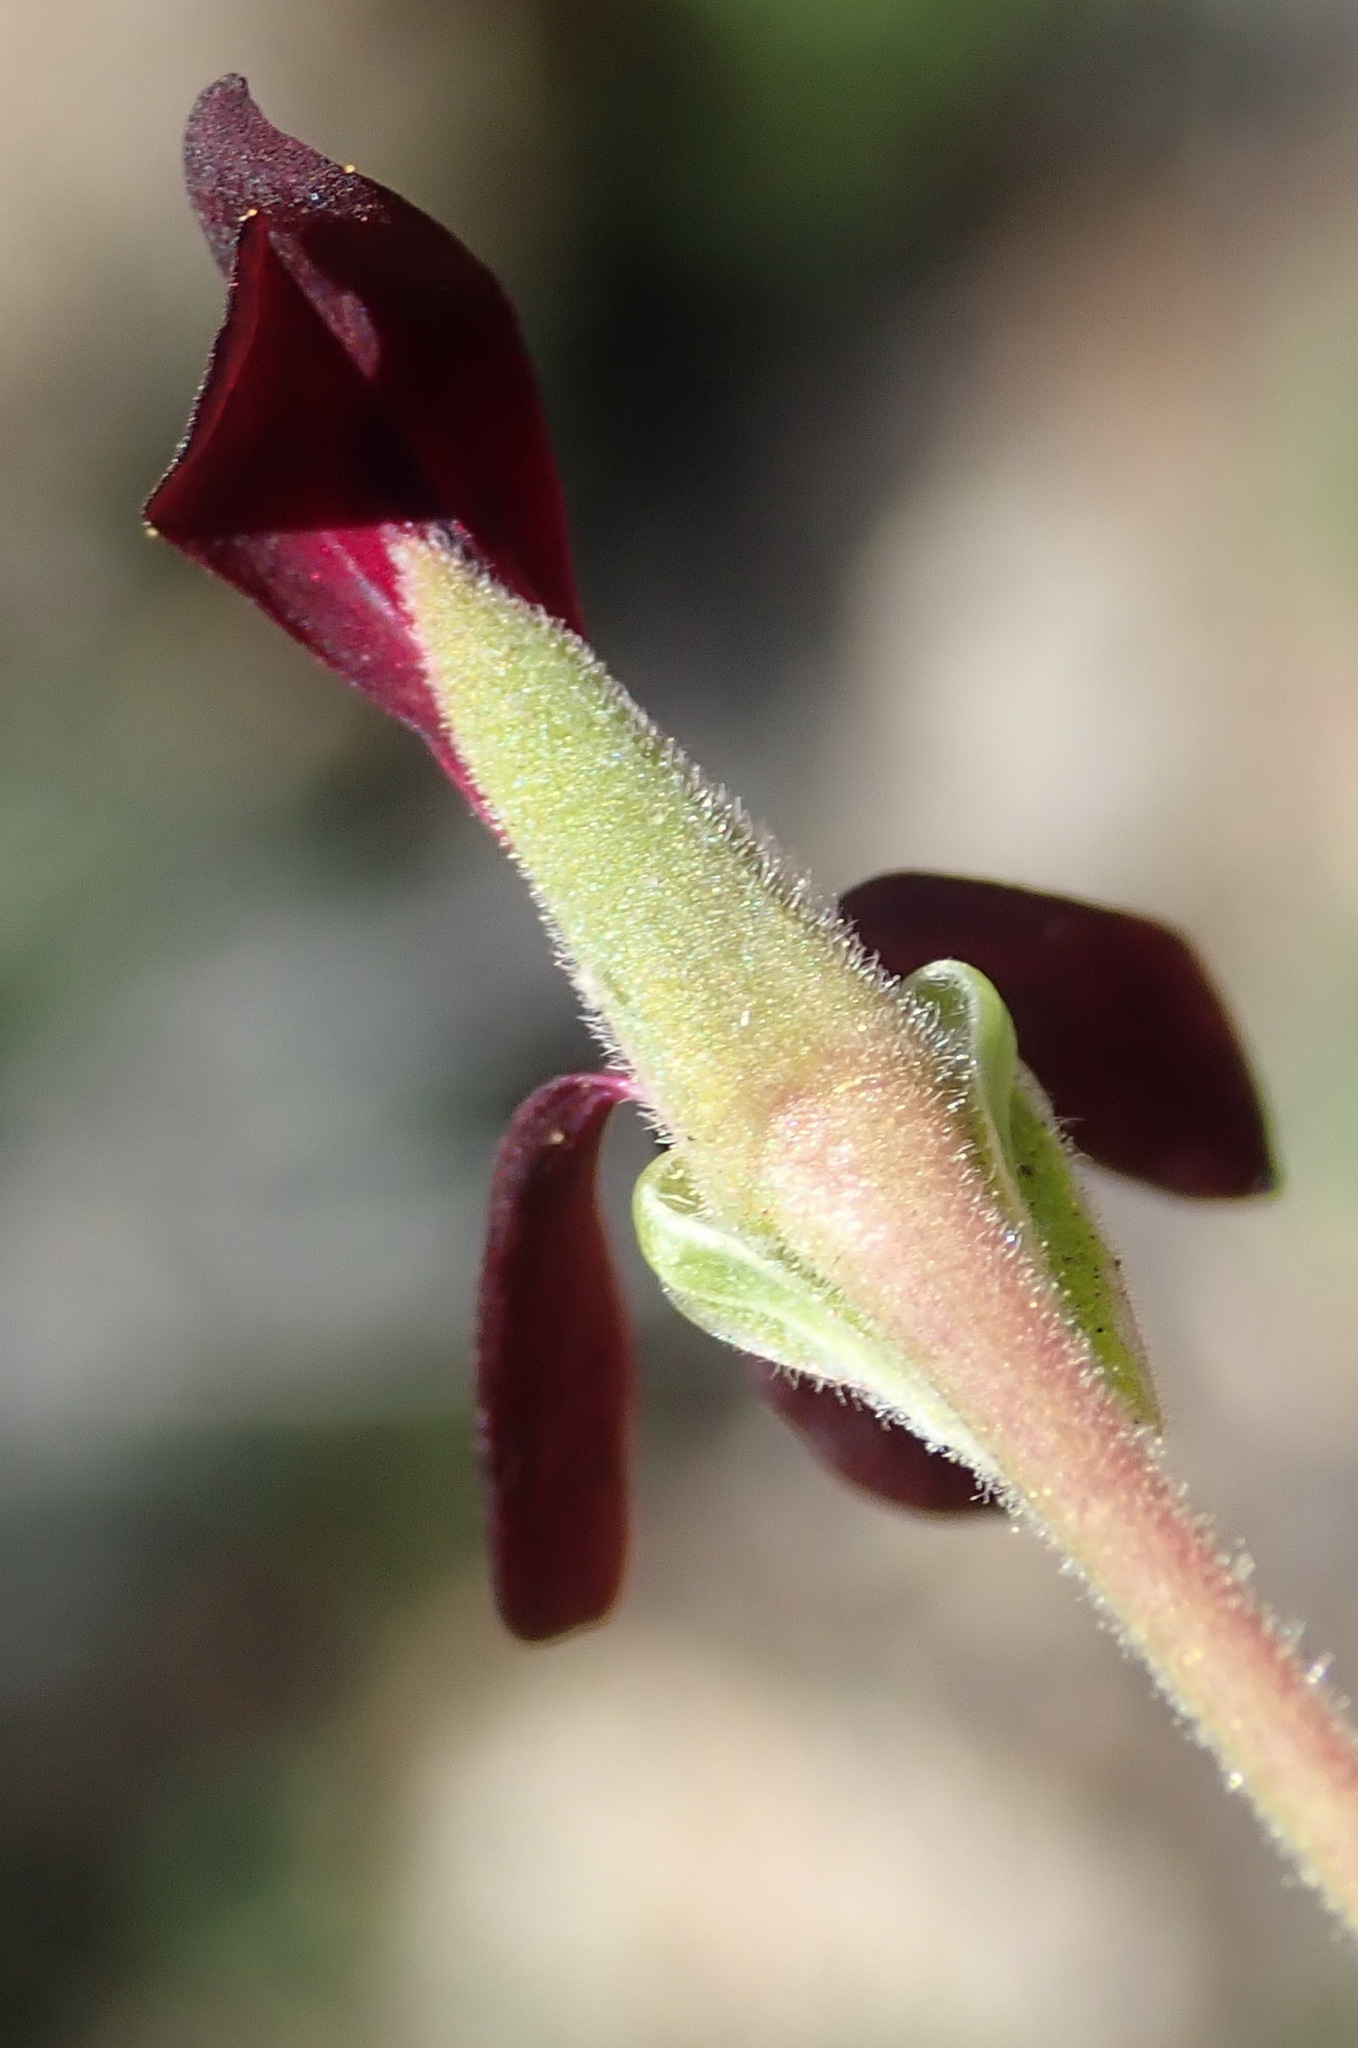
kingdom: Plantae
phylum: Tracheophyta
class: Magnoliopsida
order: Geraniales
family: Geraniaceae
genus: Pelargonium
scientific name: Pelargonium sidoides
